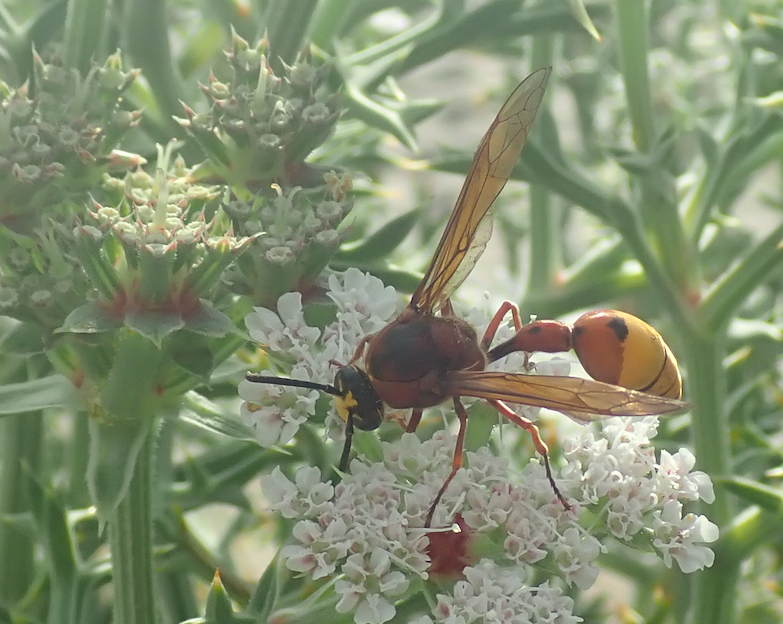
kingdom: Animalia
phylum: Arthropoda
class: Insecta
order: Hymenoptera
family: Eumenidae
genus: Delta
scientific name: Delta unguiculatum
